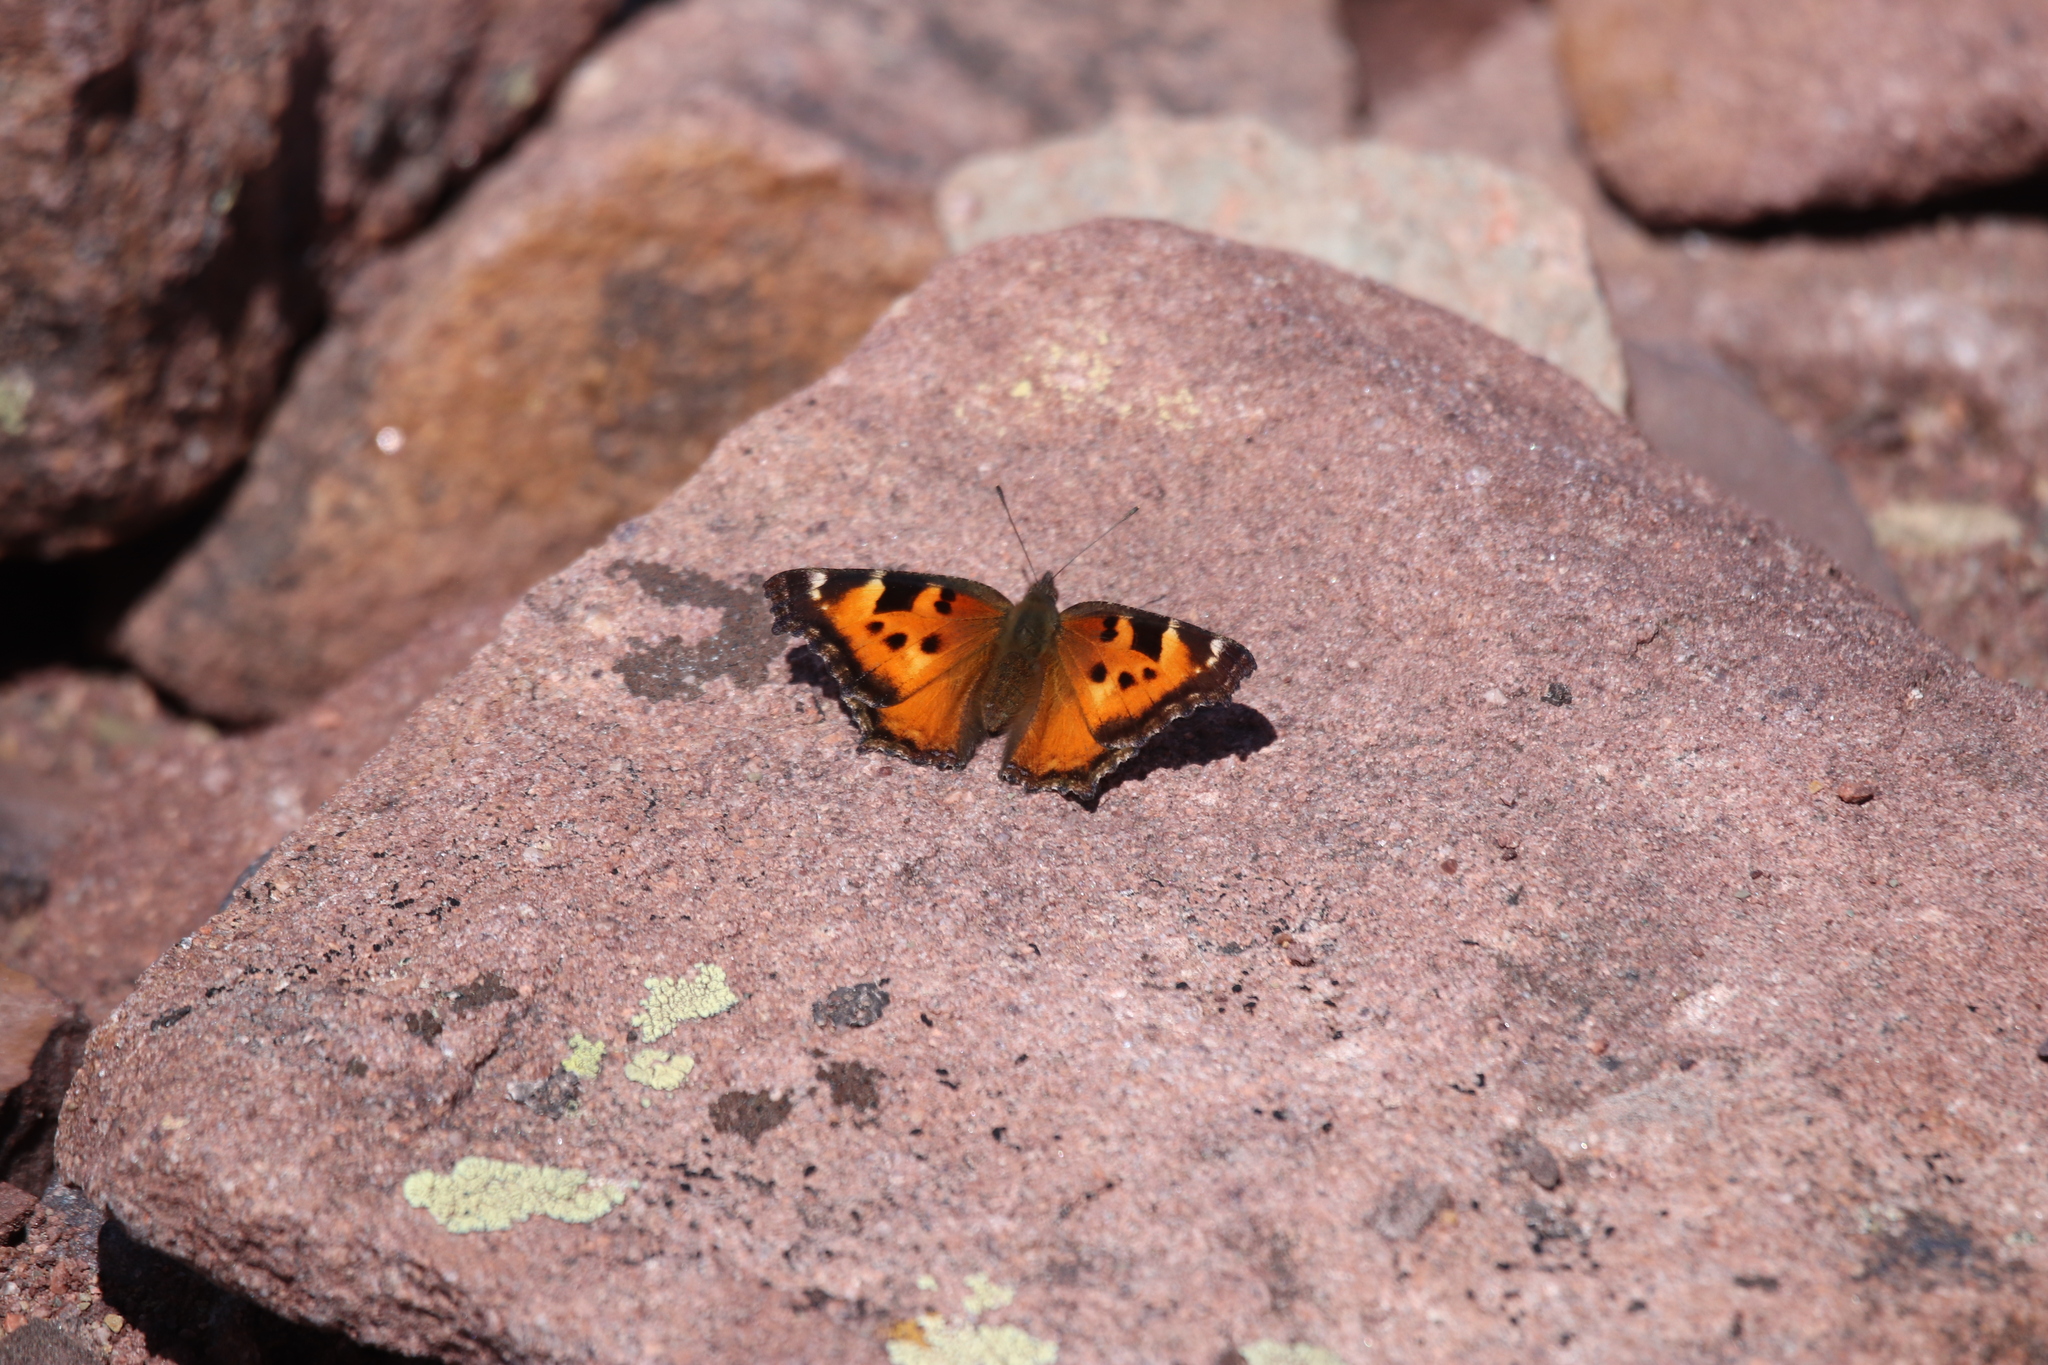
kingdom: Animalia
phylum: Arthropoda
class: Insecta
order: Lepidoptera
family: Nymphalidae
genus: Nymphalis
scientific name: Nymphalis californica
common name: California tortoiseshell
